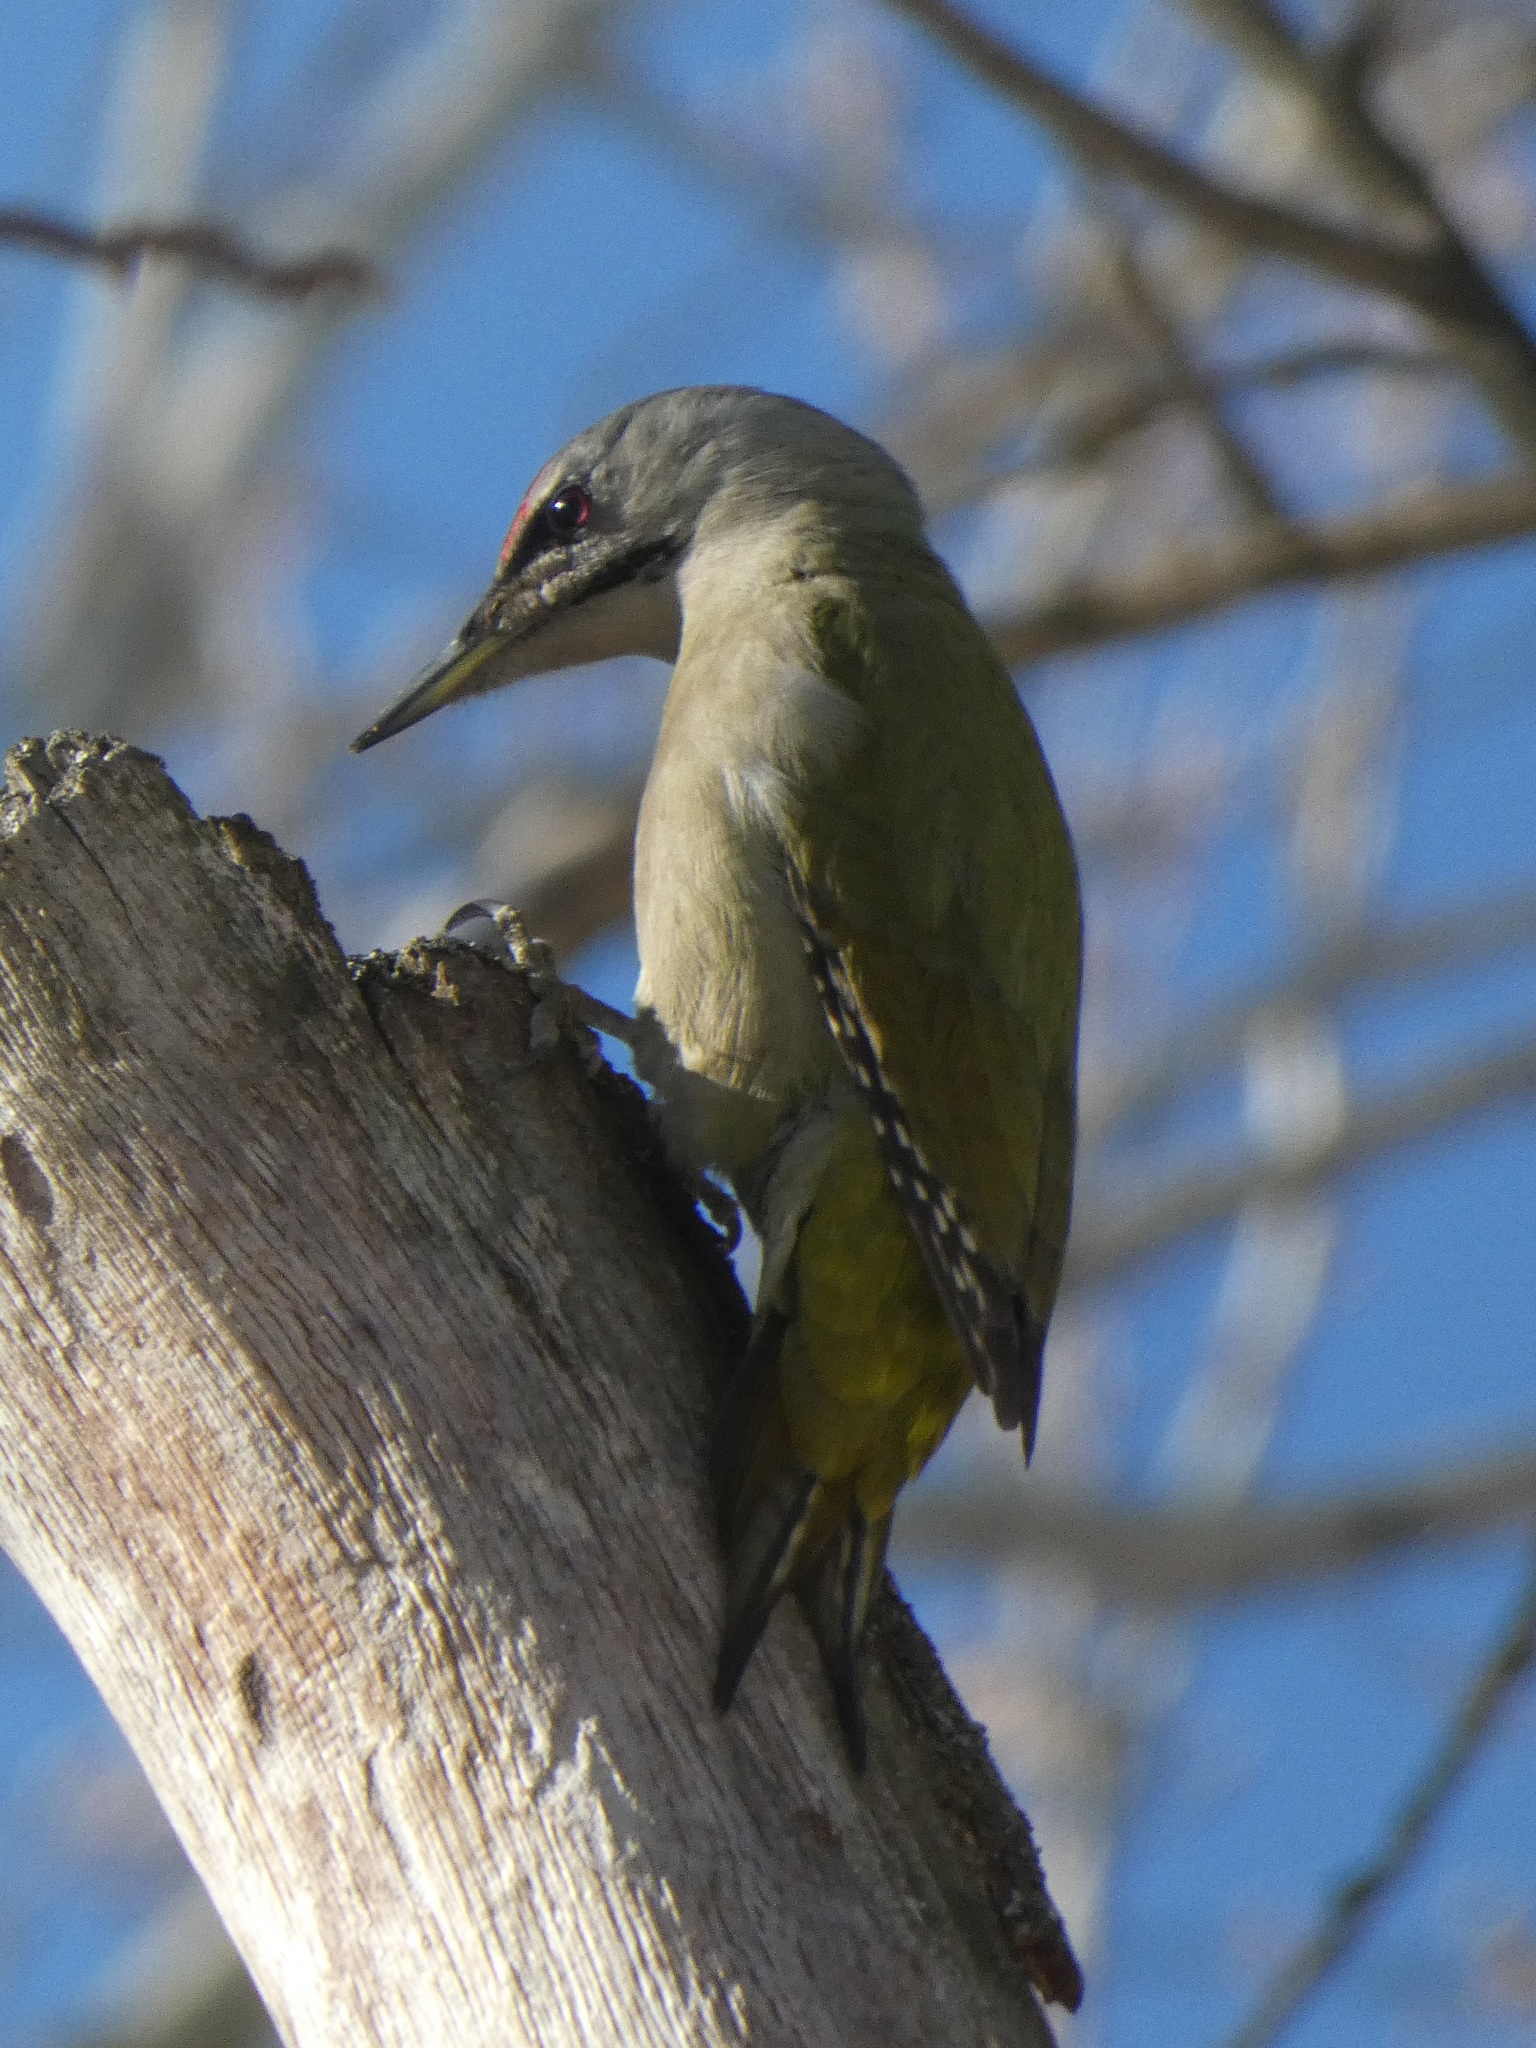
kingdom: Animalia
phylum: Chordata
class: Aves
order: Piciformes
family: Picidae
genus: Picus
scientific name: Picus canus
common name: Grey-headed woodpecker
